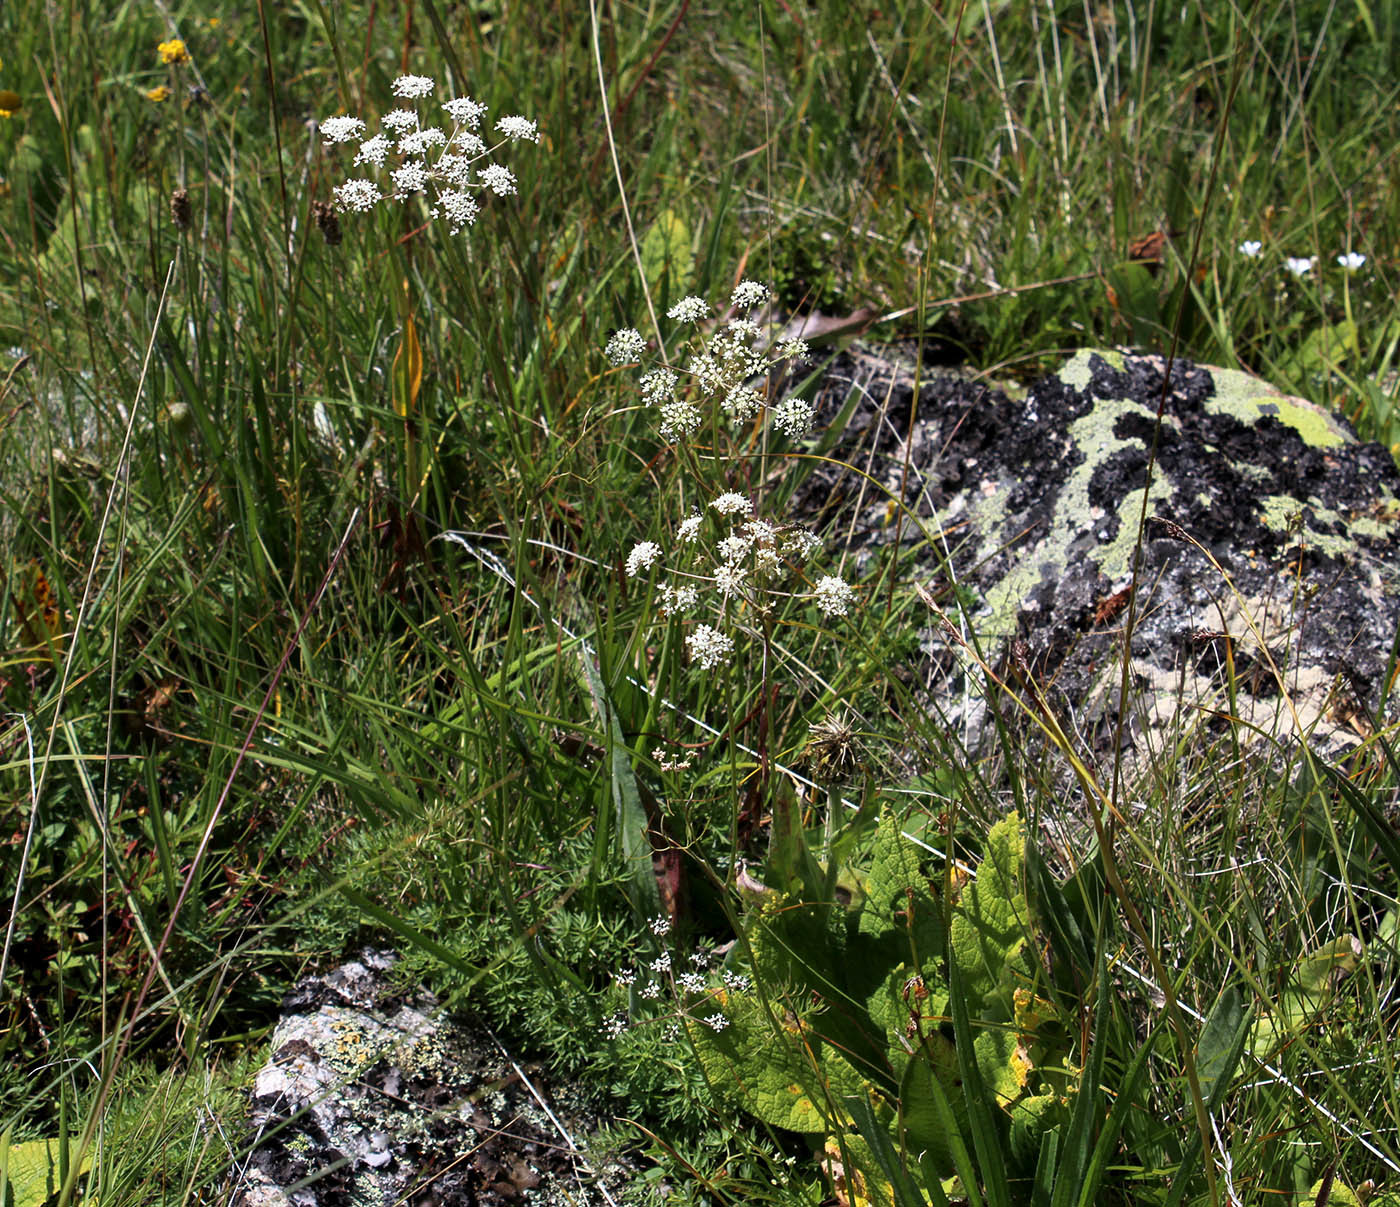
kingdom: Plantae
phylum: Tracheophyta
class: Magnoliopsida
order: Apiales
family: Apiaceae
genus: Lomatocarum
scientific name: Lomatocarum alpinum
